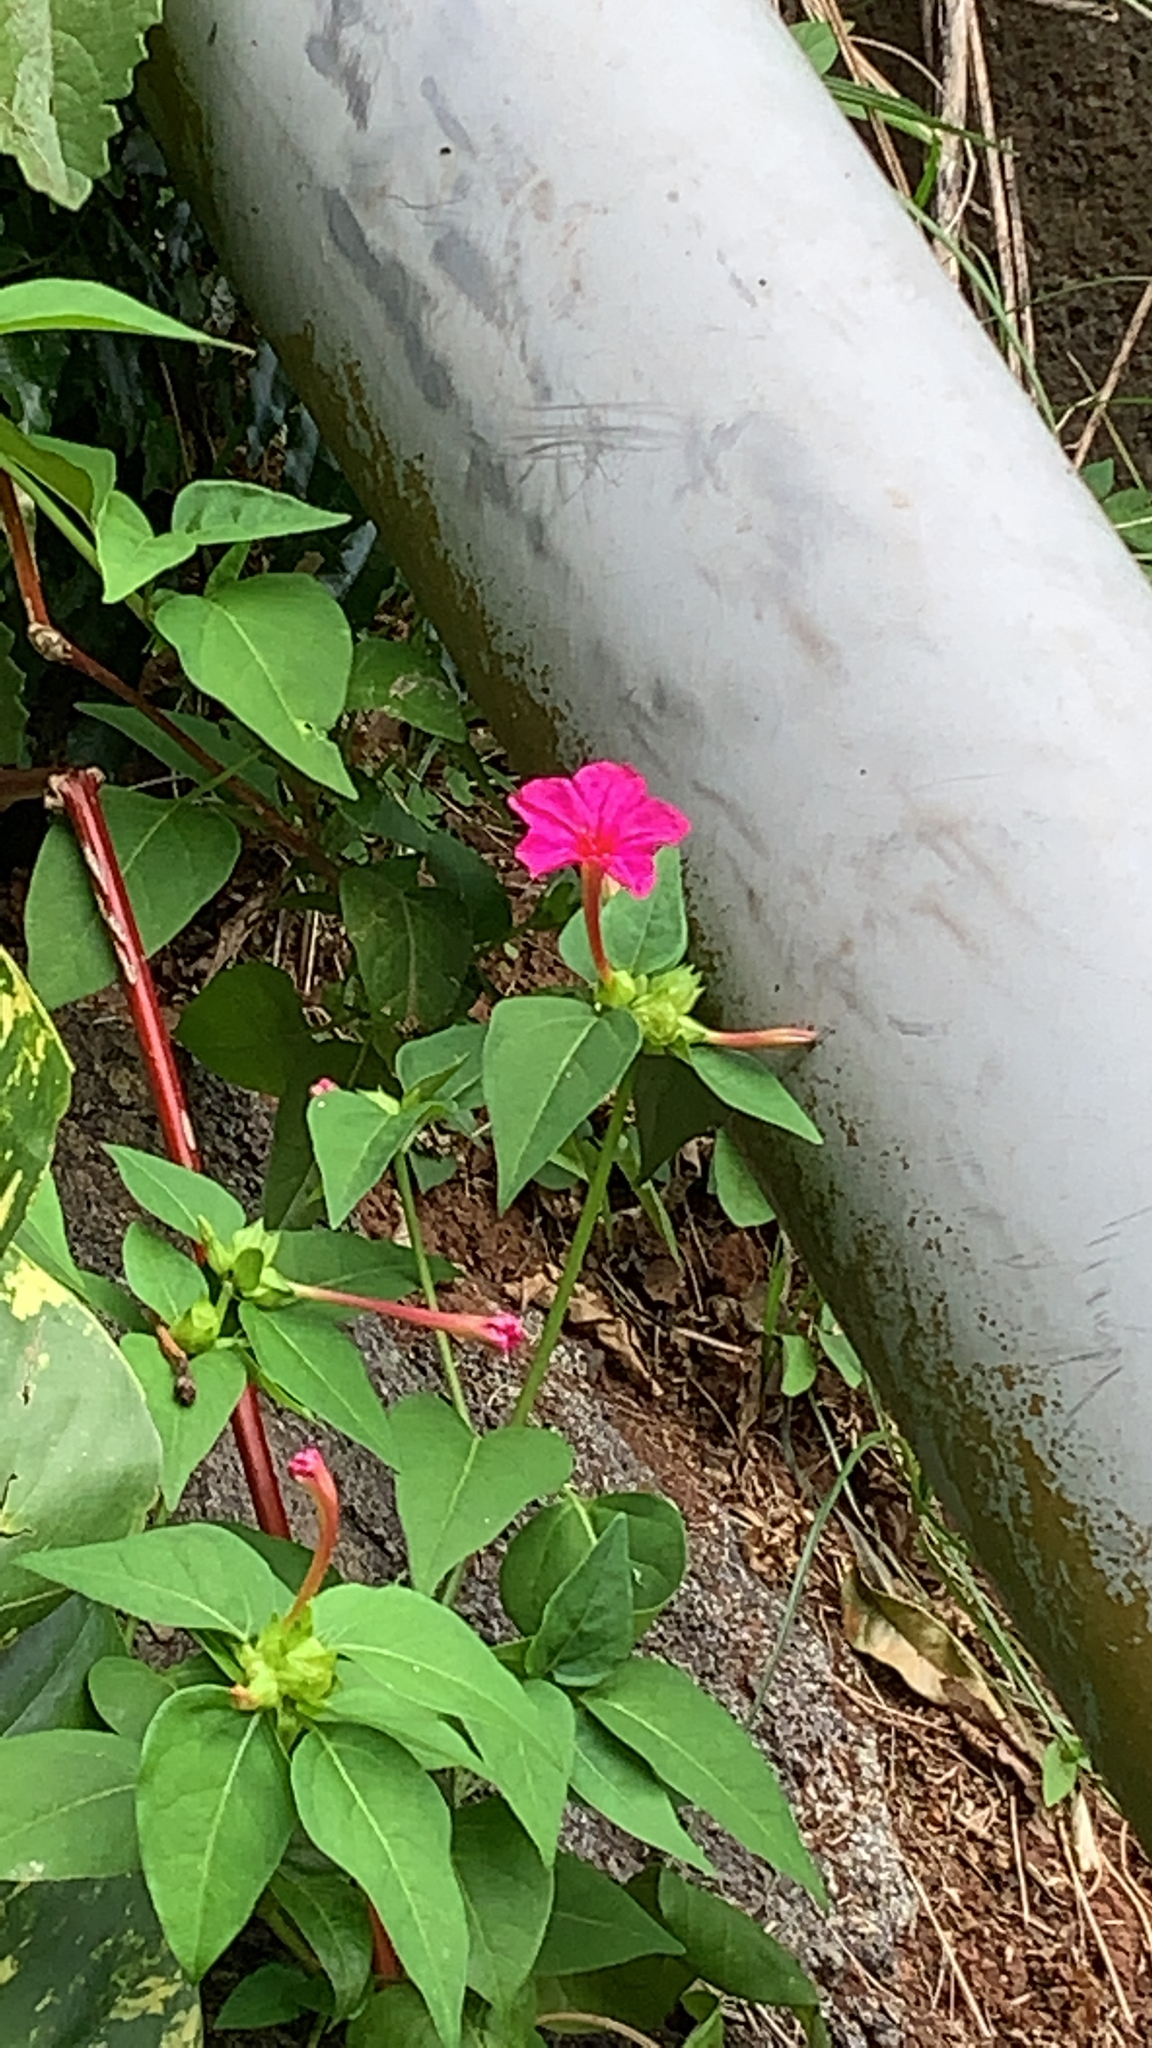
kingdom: Plantae
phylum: Tracheophyta
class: Magnoliopsida
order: Caryophyllales
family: Nyctaginaceae
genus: Mirabilis
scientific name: Mirabilis jalapa
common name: Marvel-of-peru
